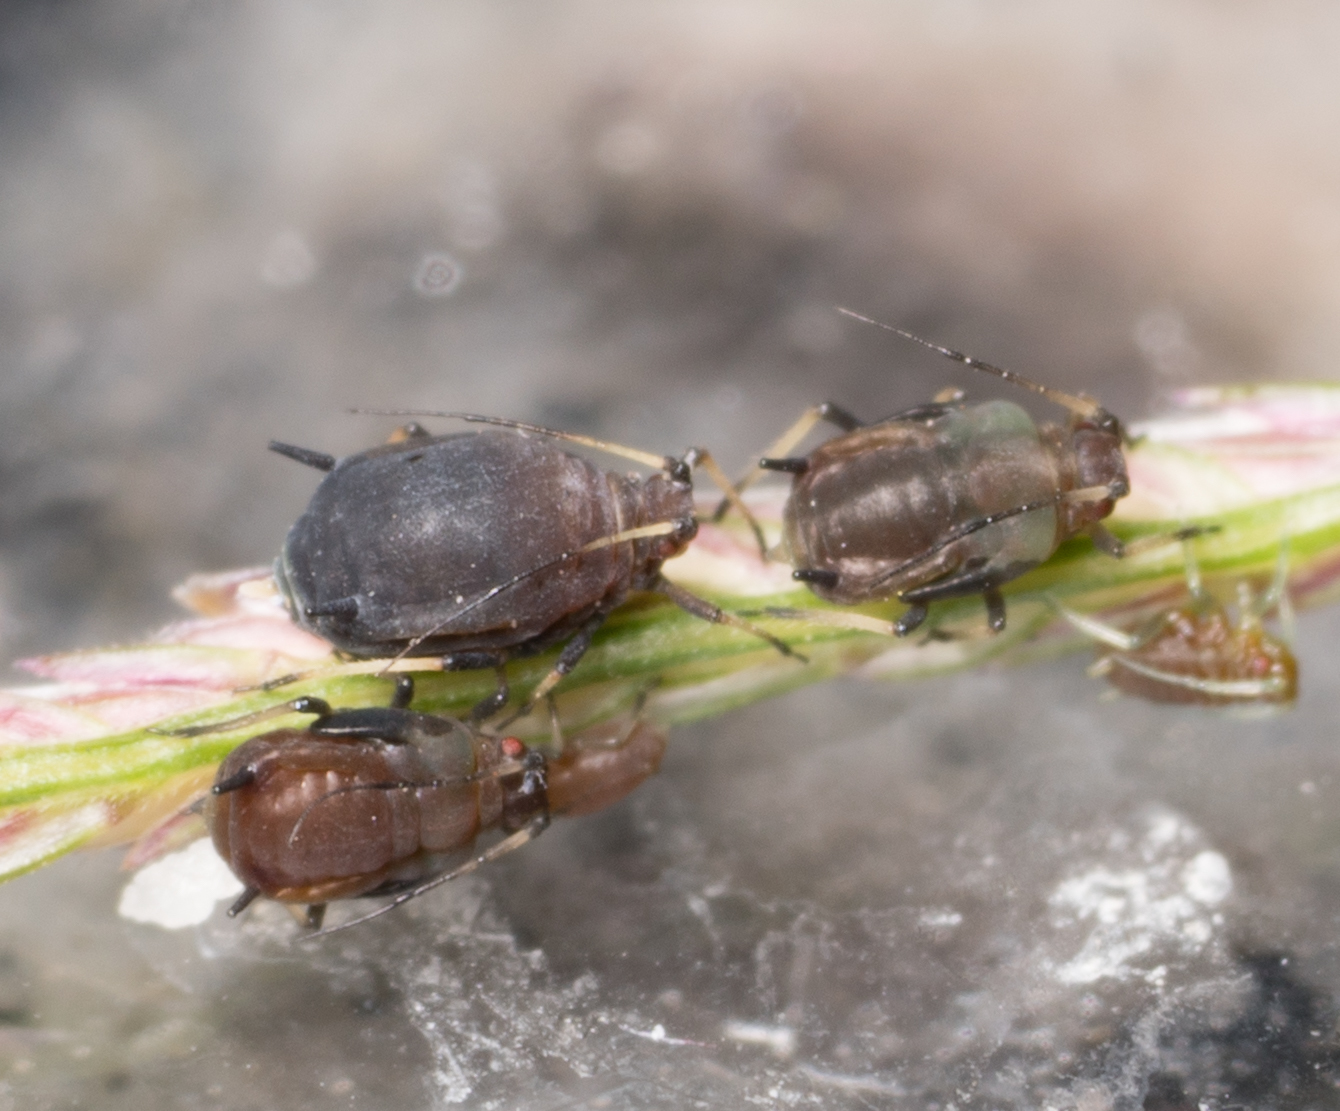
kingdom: Animalia
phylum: Arthropoda
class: Insecta
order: Hemiptera
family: Aphididae
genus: Hysteroneura
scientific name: Hysteroneura setariae
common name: Rusty plum aphid
